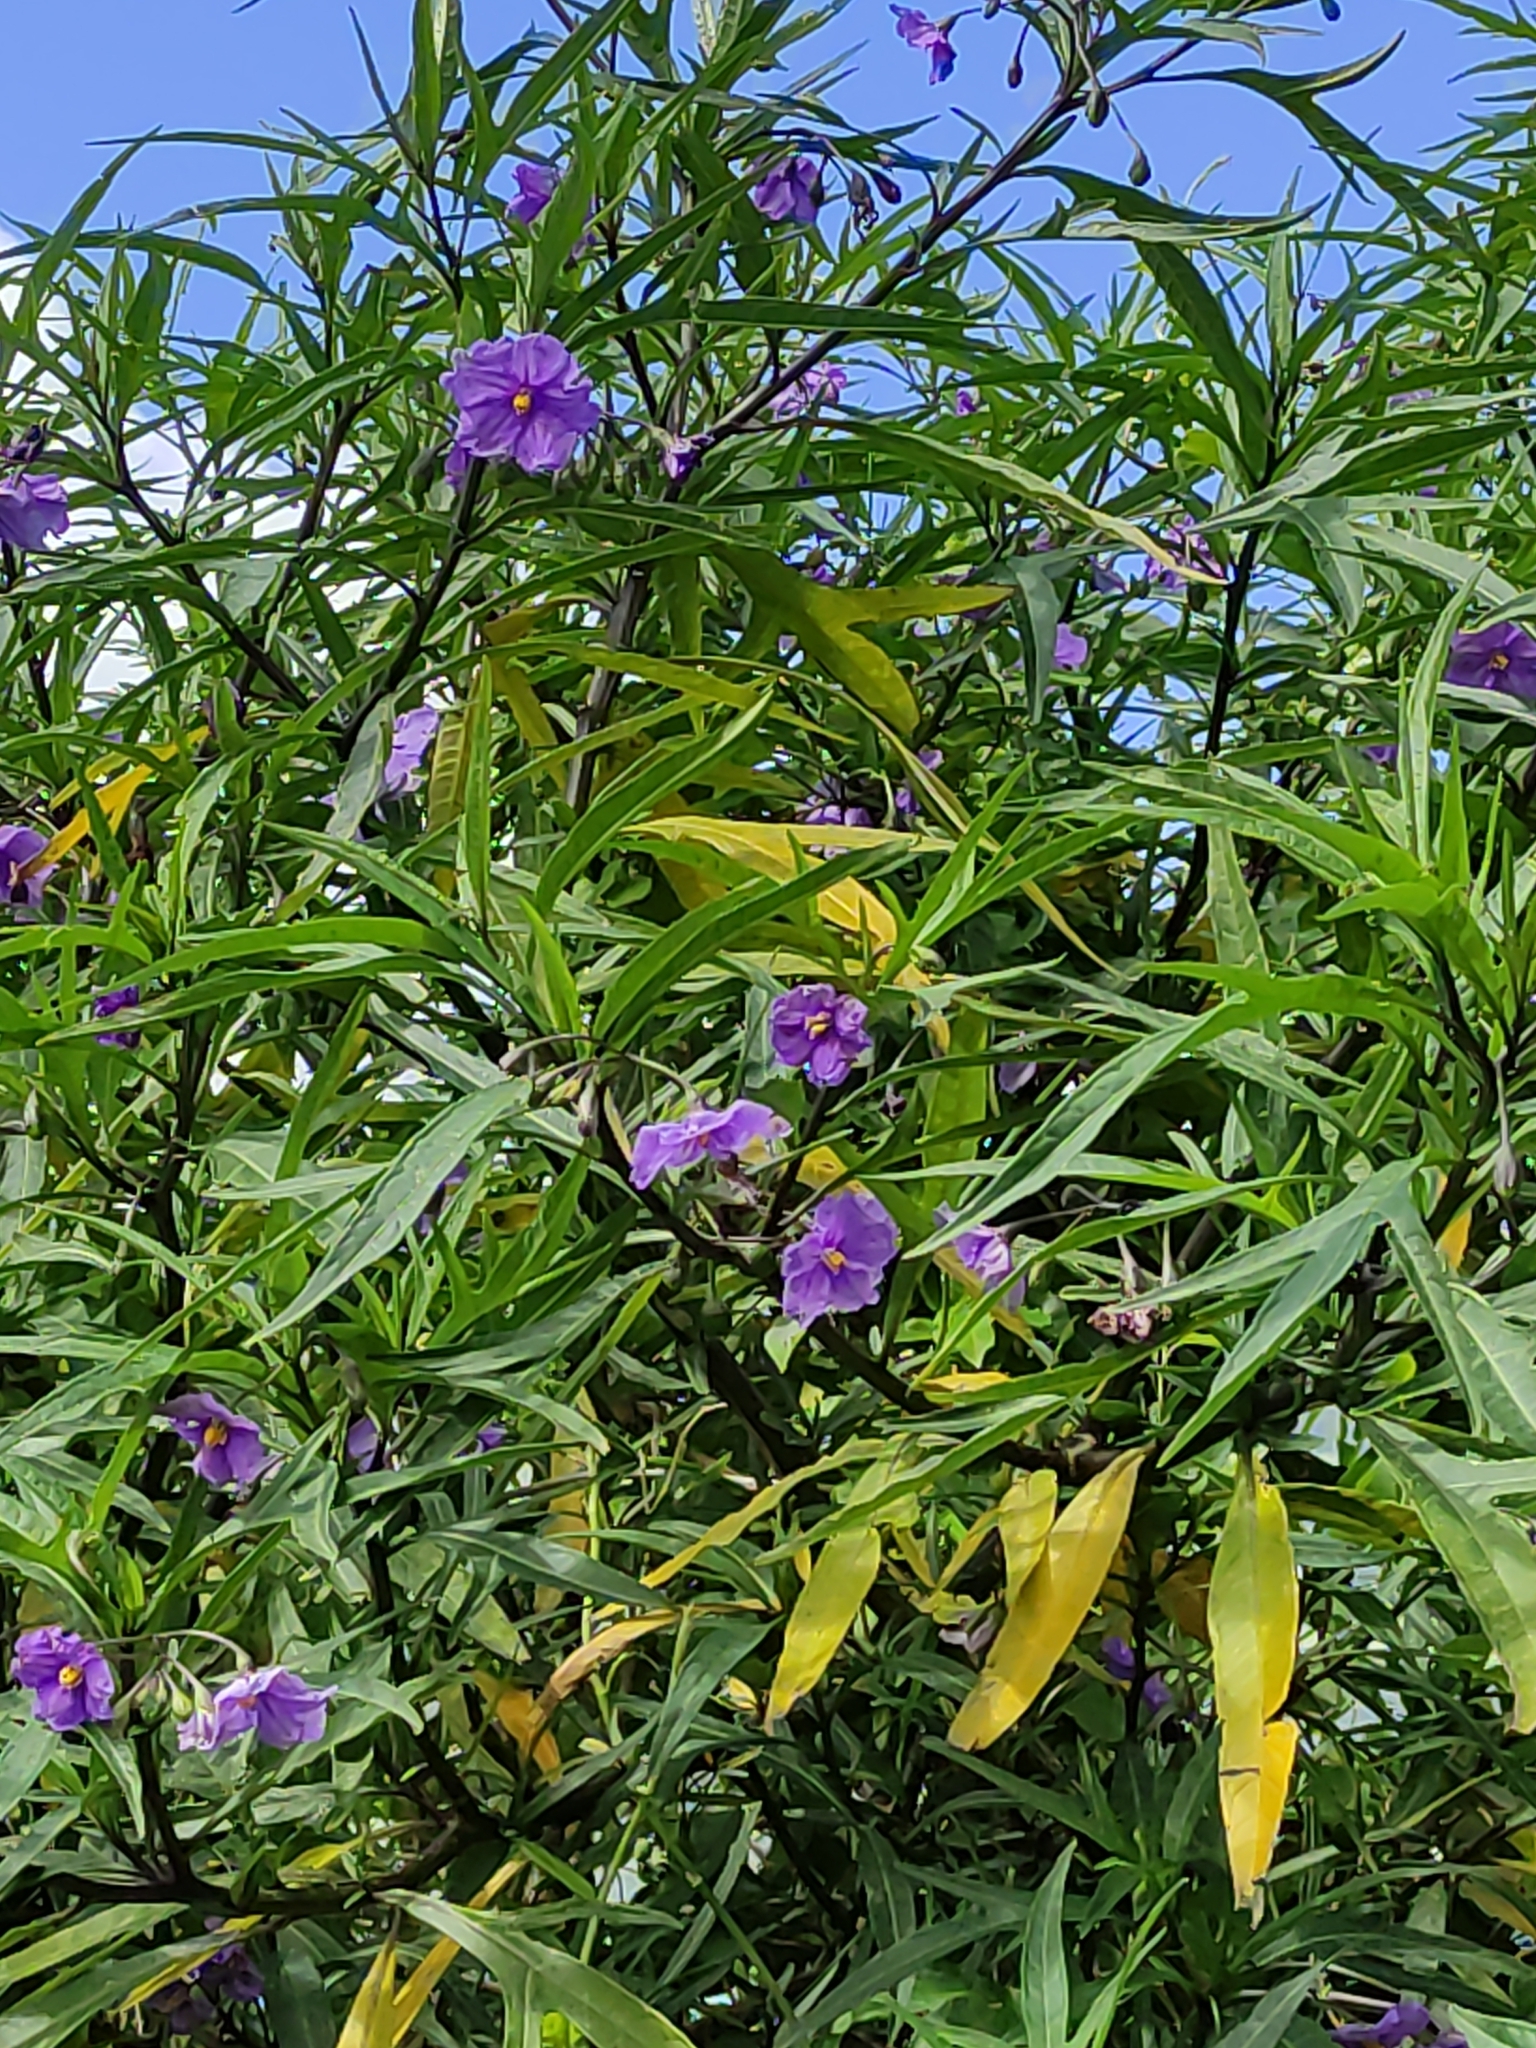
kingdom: Plantae
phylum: Tracheophyta
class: Magnoliopsida
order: Solanales
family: Solanaceae
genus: Solanum
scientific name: Solanum laciniatum
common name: Kangaroo-apple
